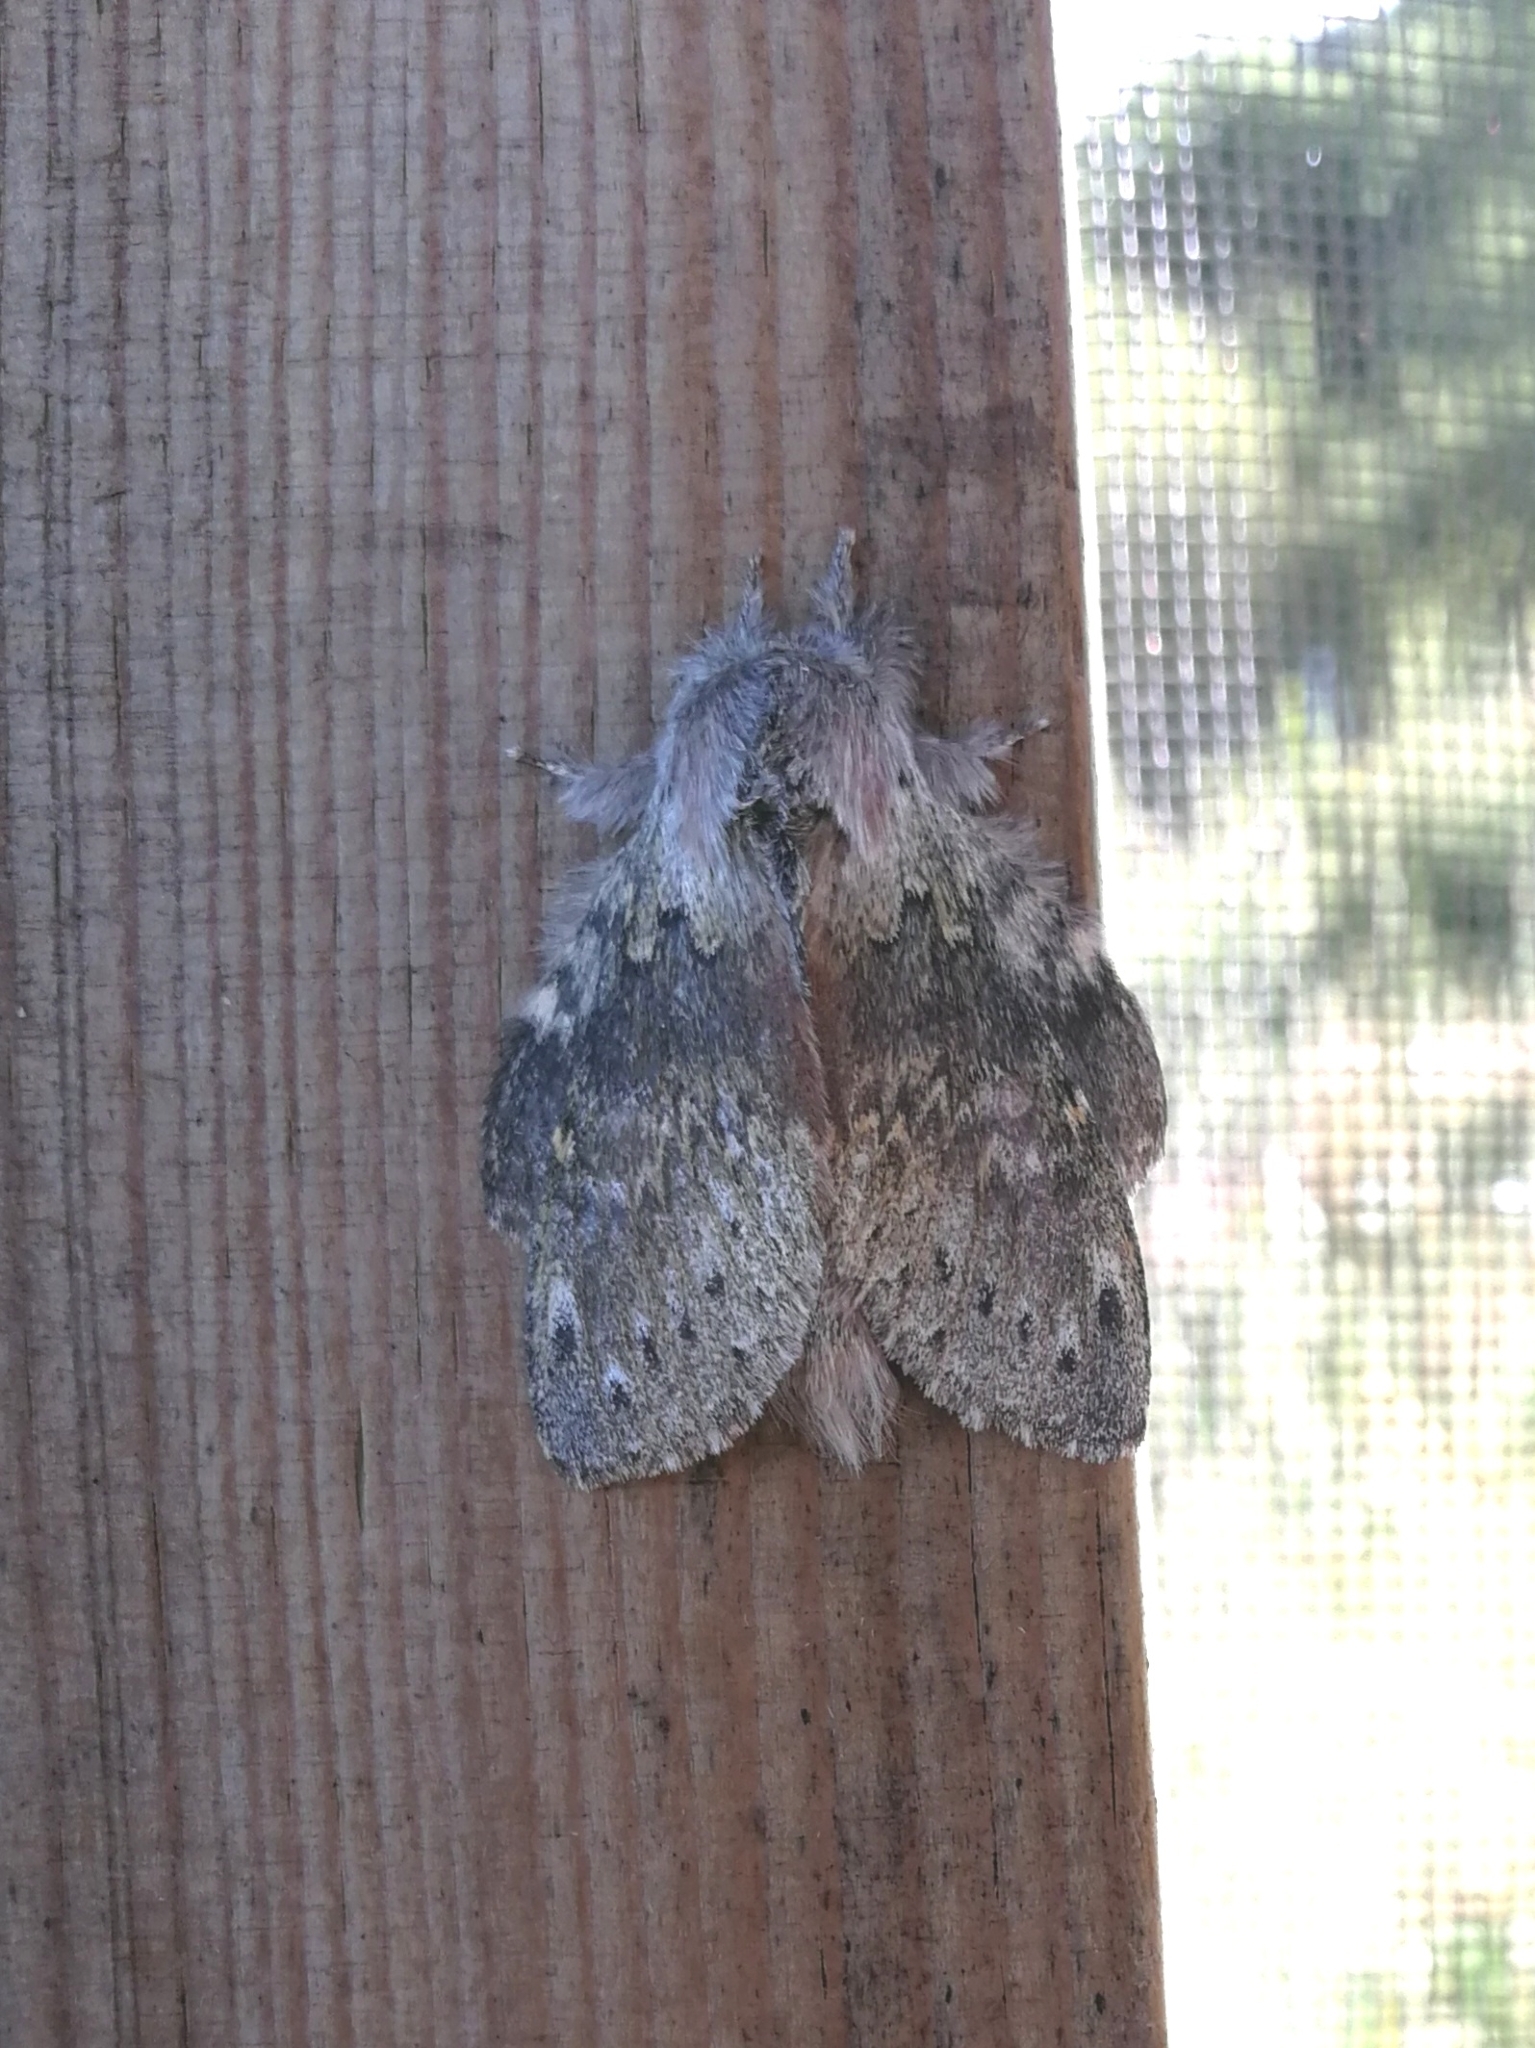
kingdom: Animalia
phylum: Arthropoda
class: Insecta
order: Lepidoptera
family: Notodontidae
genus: Stauropus
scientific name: Stauropus fagi
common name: Lobster moth
